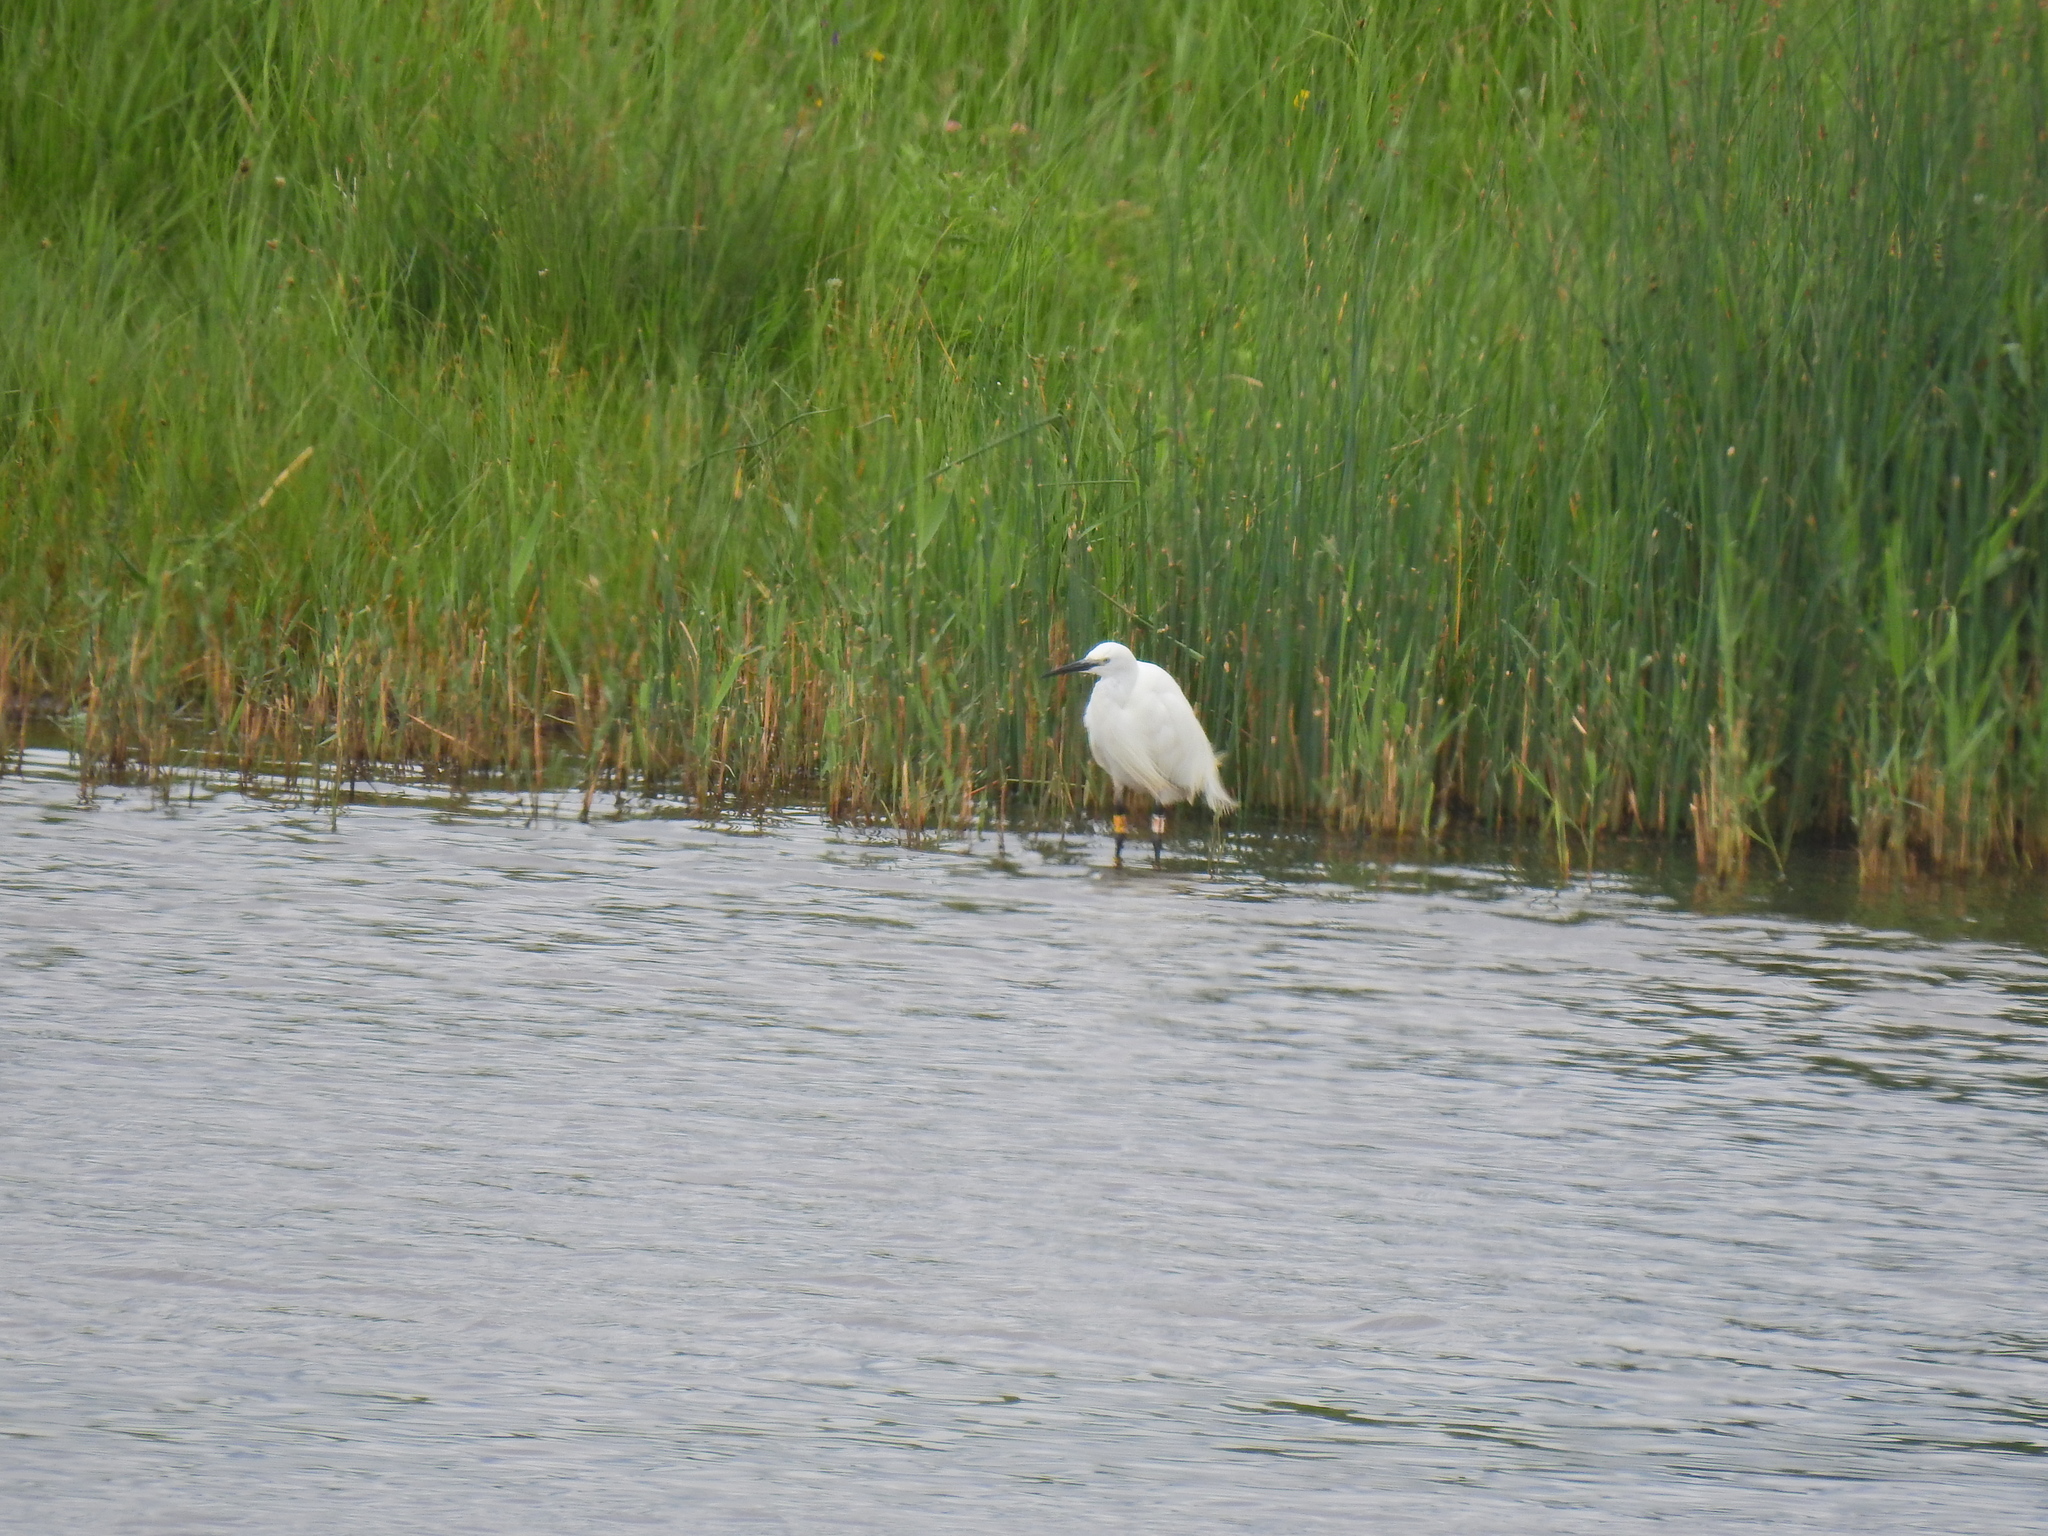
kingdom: Animalia
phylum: Chordata
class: Aves
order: Pelecaniformes
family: Ardeidae
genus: Egretta
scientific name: Egretta garzetta
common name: Little egret
